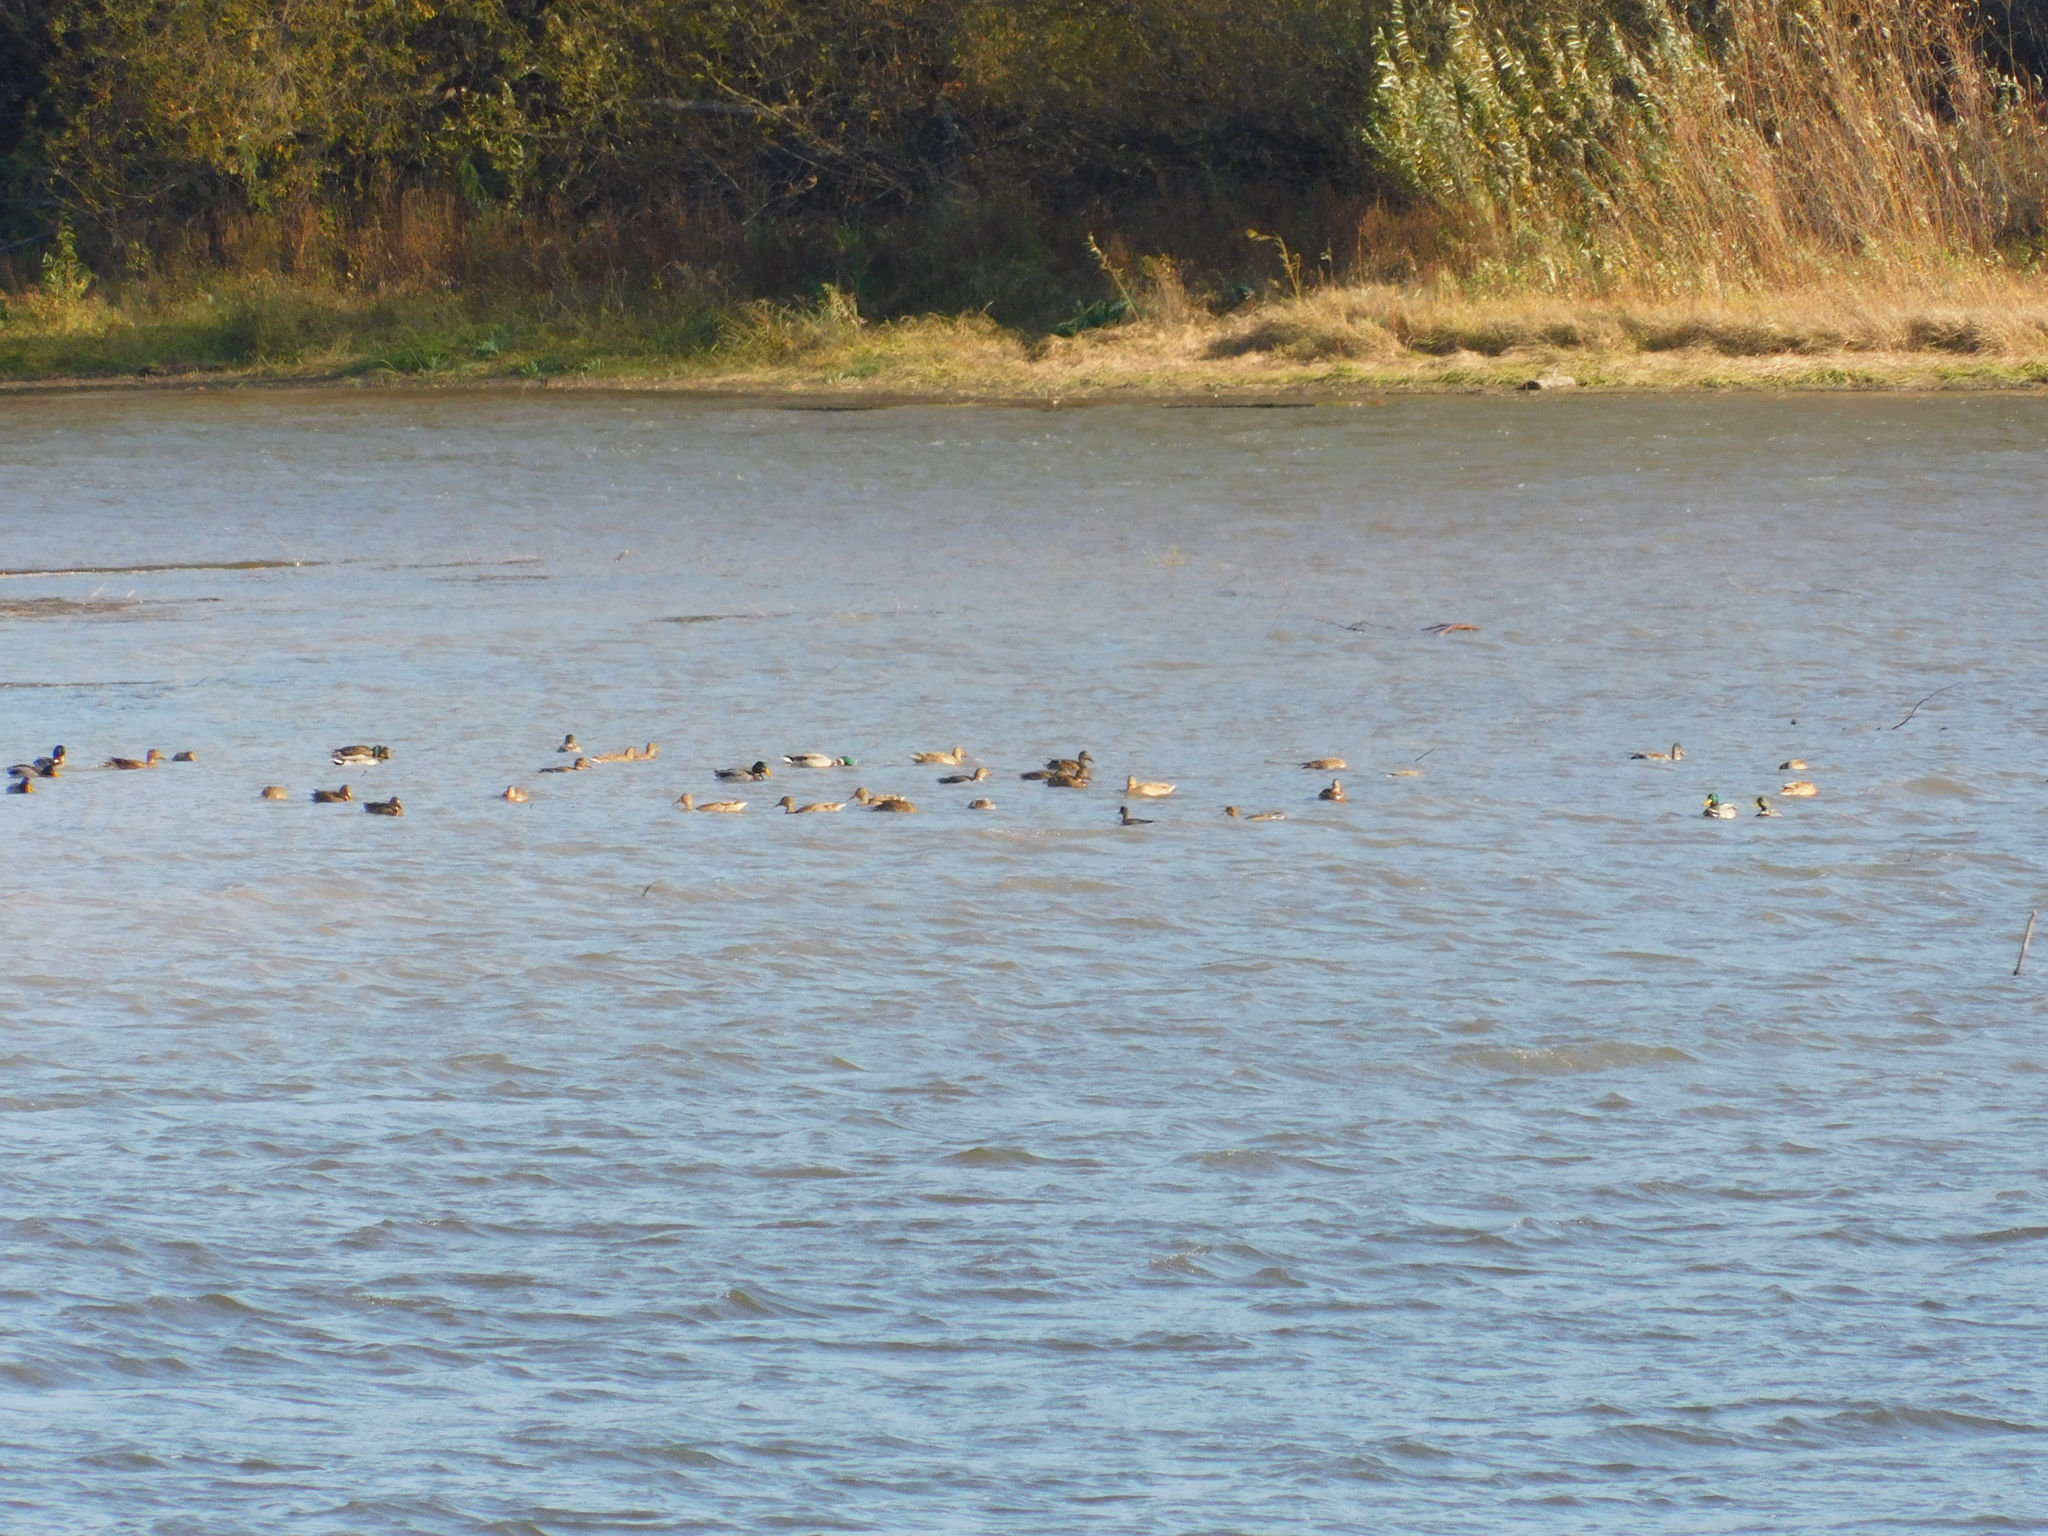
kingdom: Animalia
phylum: Chordata
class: Aves
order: Anseriformes
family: Anatidae
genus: Anas
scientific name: Anas platyrhynchos
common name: Mallard
